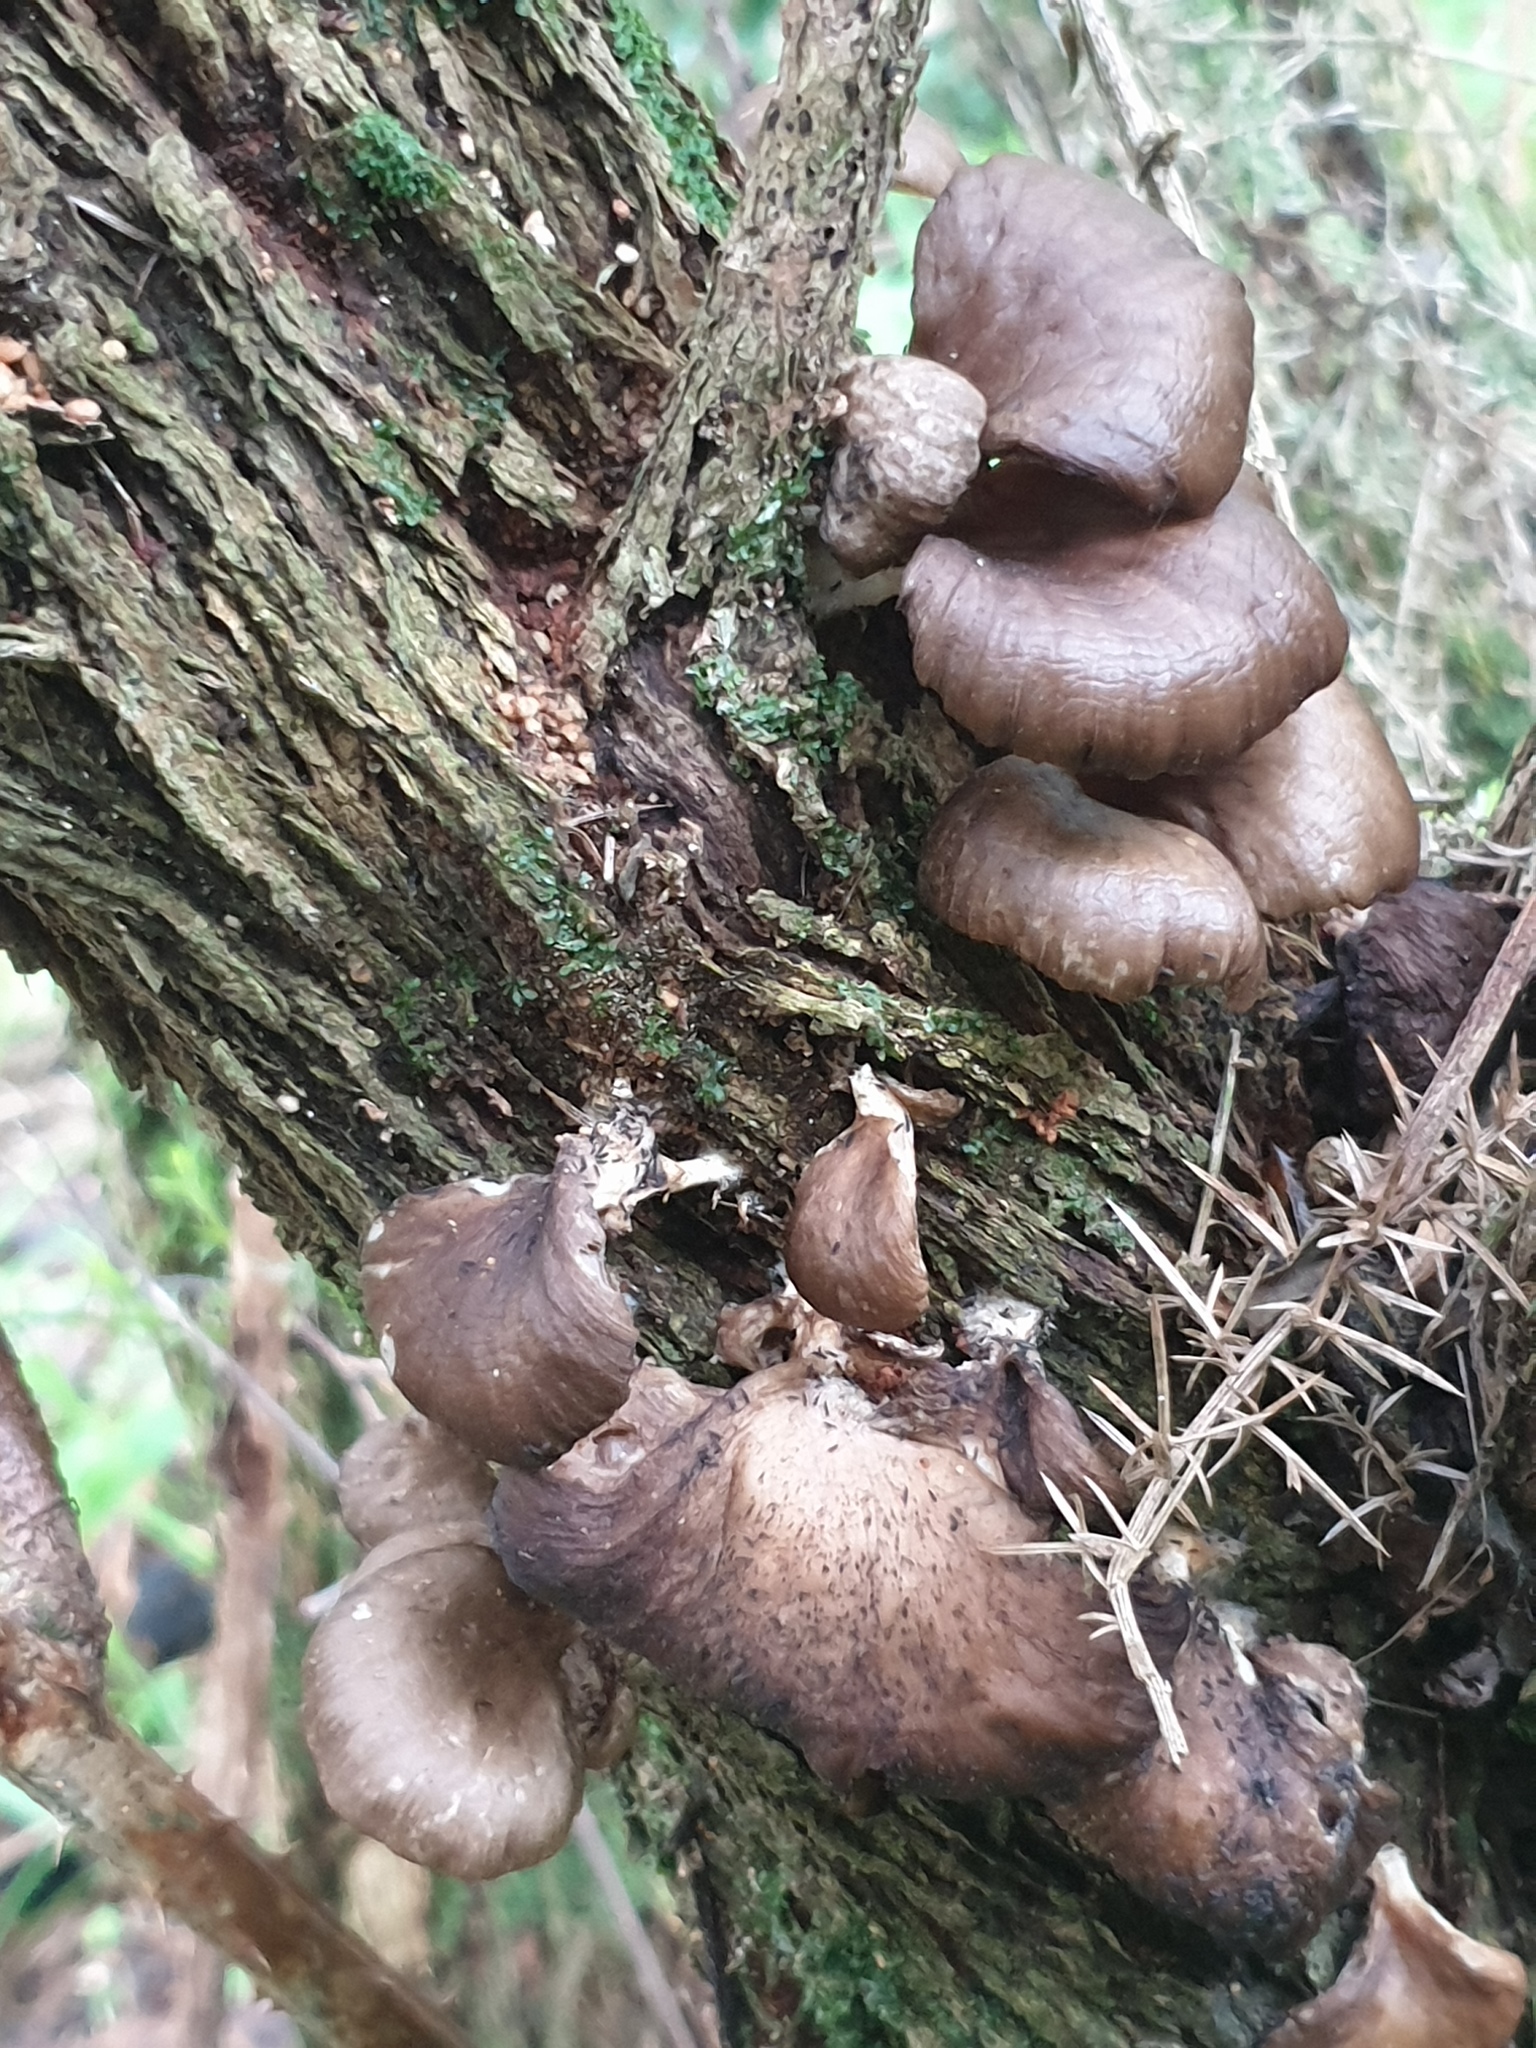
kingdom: Fungi
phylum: Basidiomycota
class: Agaricomycetes
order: Agaricales
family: Pleurotaceae
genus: Pleurotus
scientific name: Pleurotus purpureo-olivaceus
